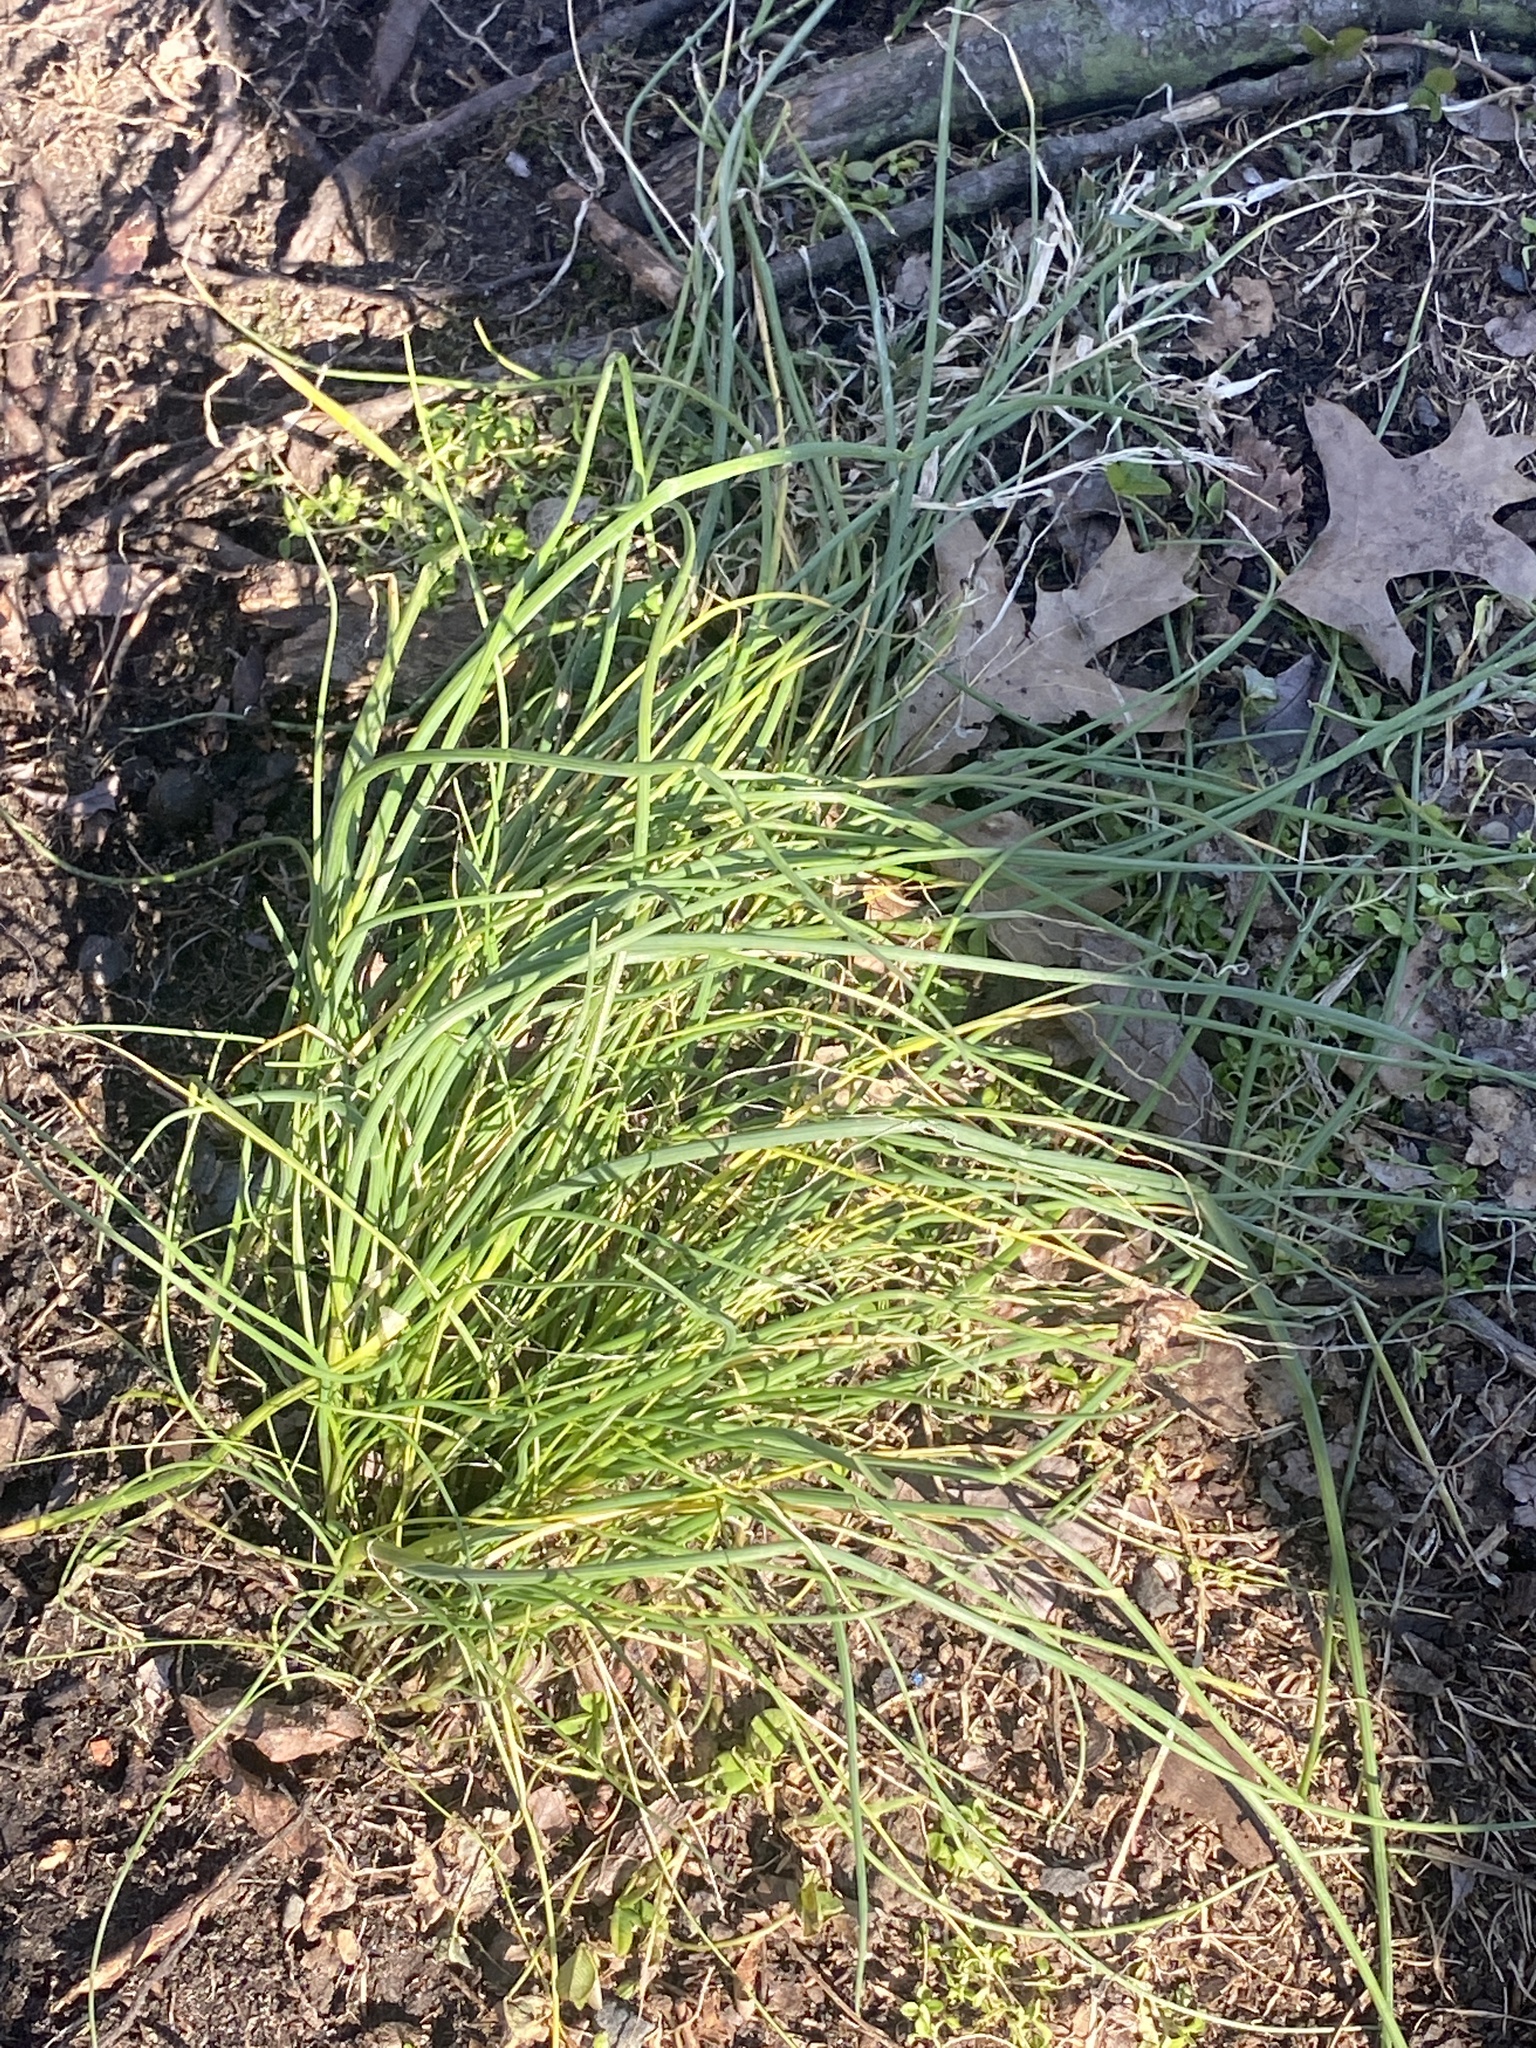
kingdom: Plantae
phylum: Tracheophyta
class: Liliopsida
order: Asparagales
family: Amaryllidaceae
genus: Allium
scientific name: Allium vineale
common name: Crow garlic
